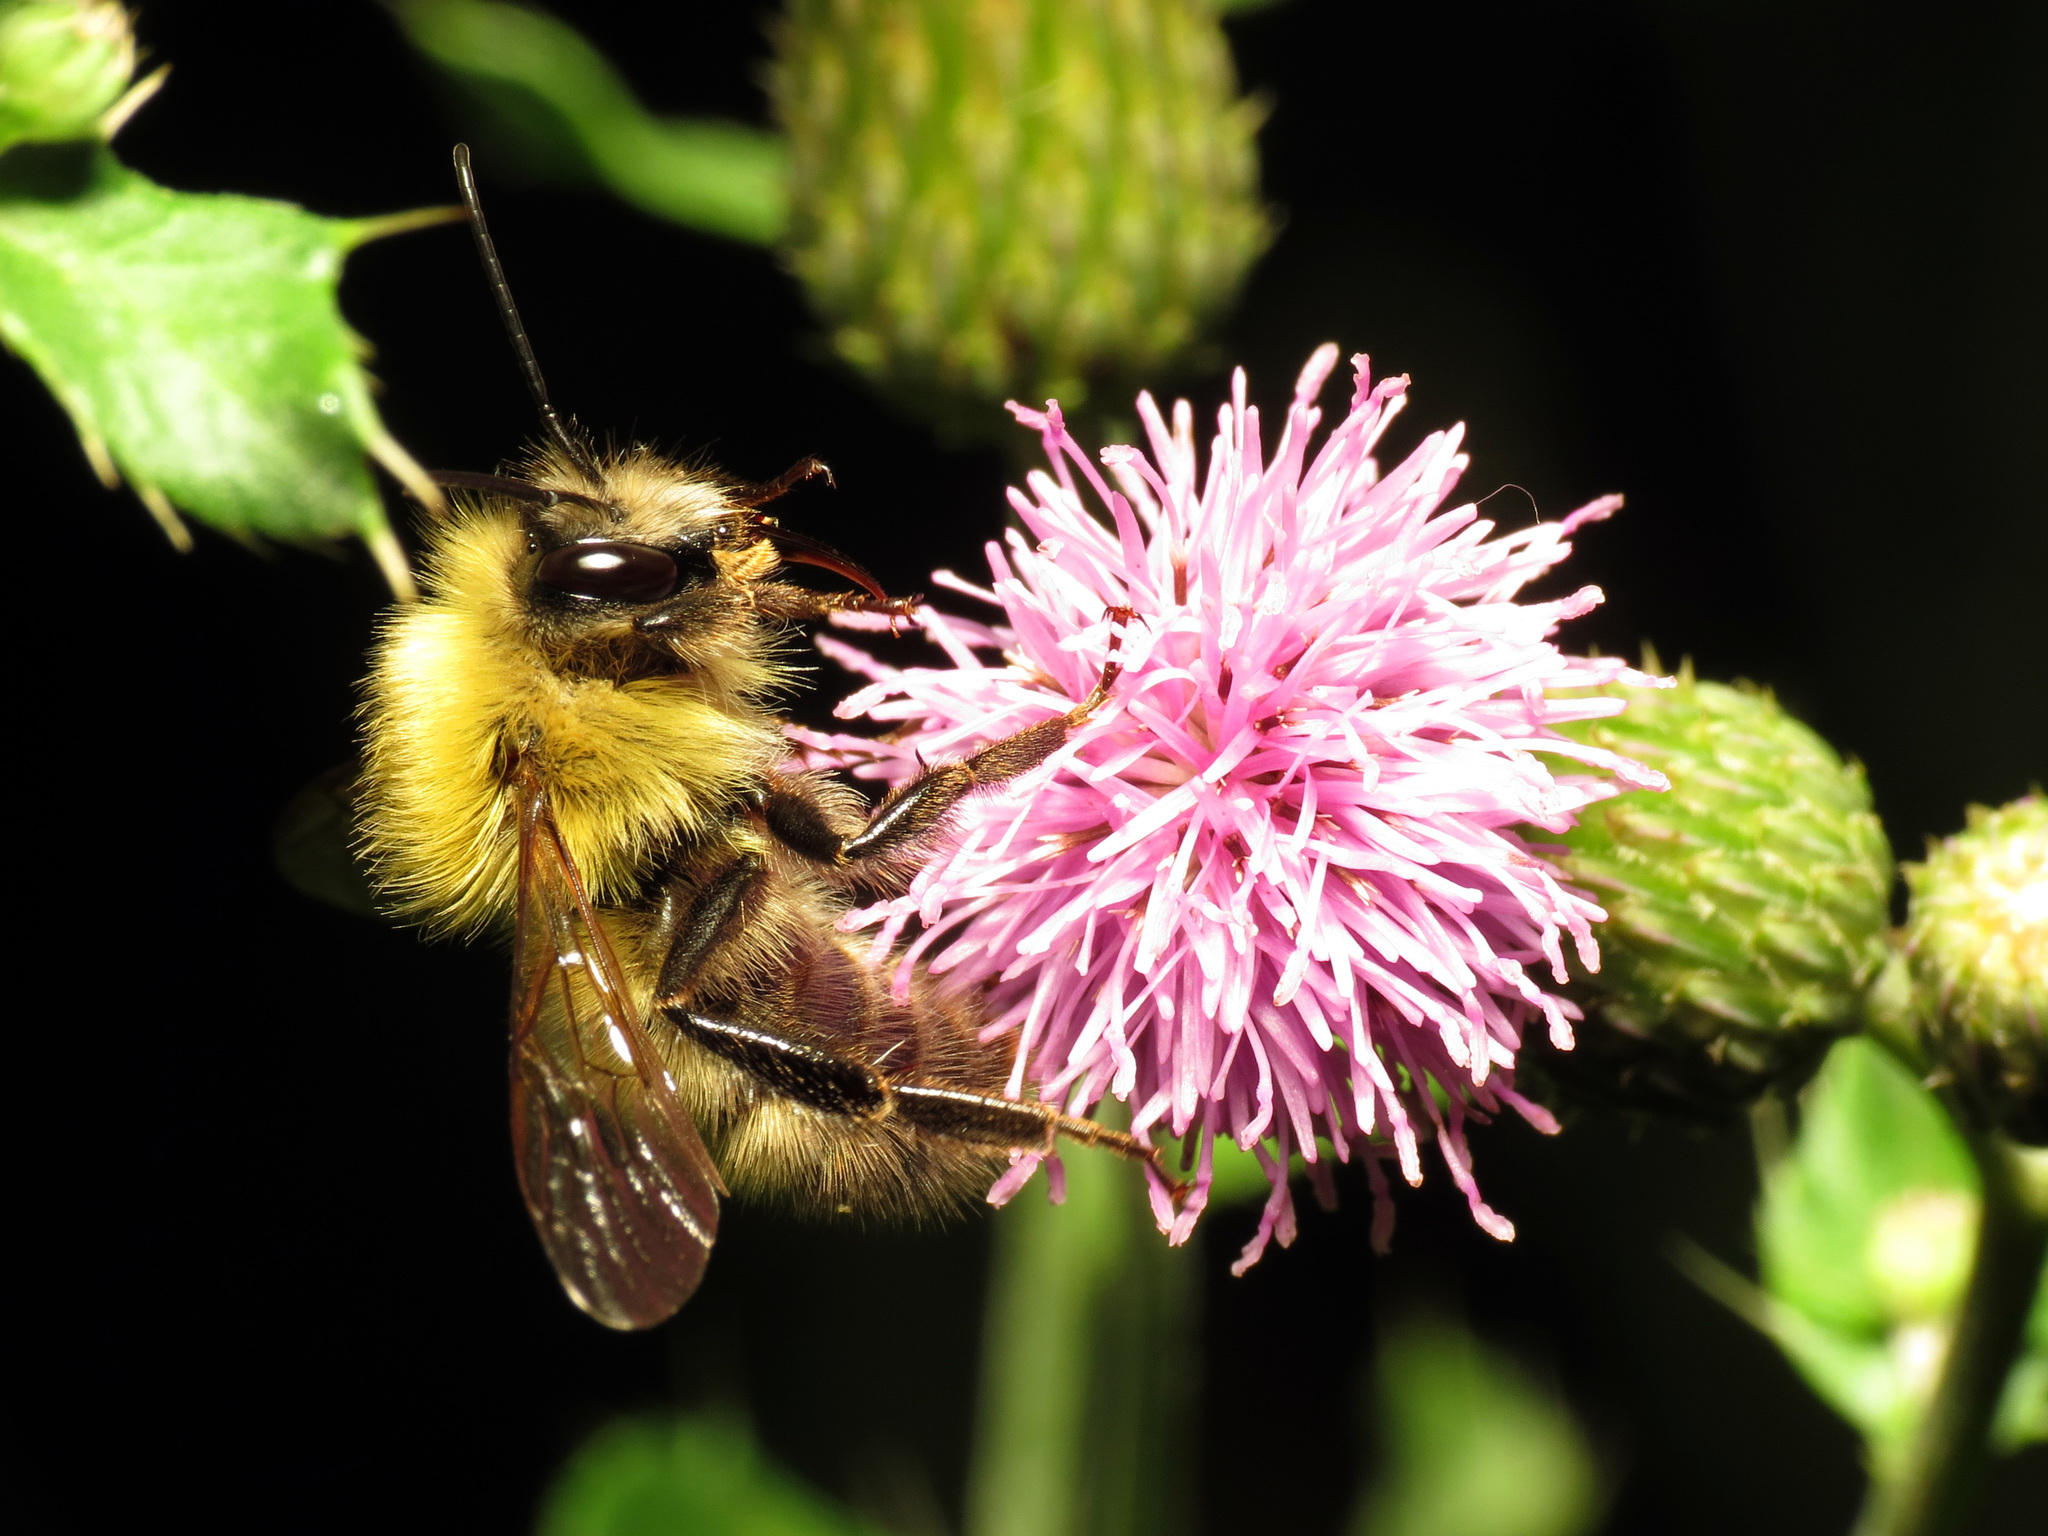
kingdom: Animalia
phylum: Arthropoda
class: Insecta
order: Hymenoptera
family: Apidae
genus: Bombus
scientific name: Bombus perplexus
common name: Confusing bumble bee
